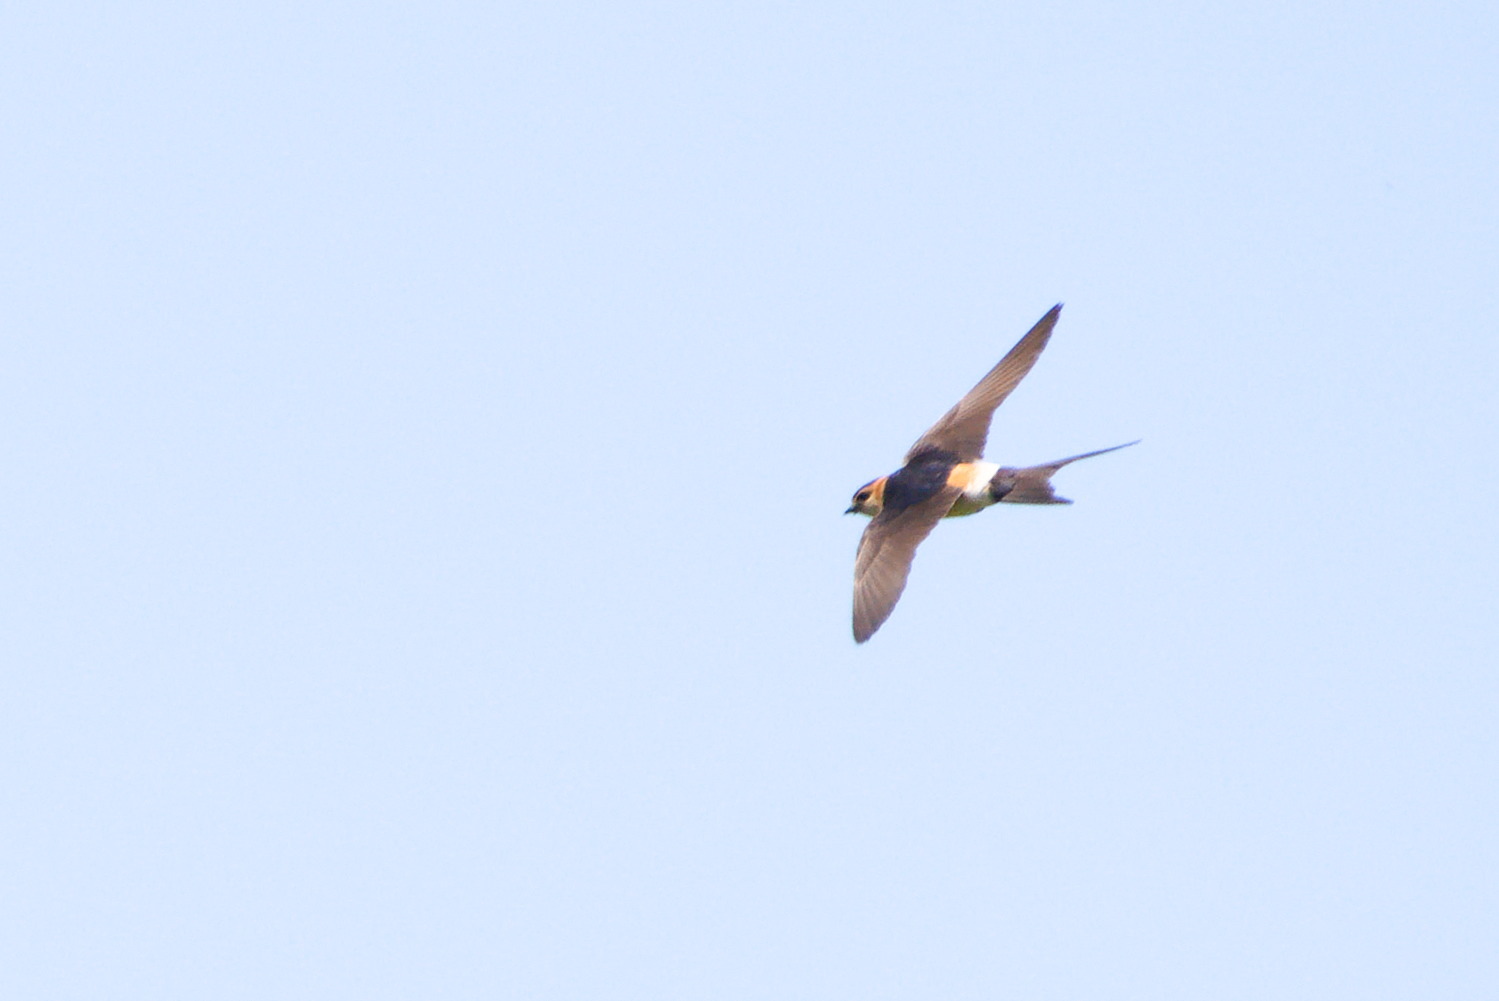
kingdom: Animalia
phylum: Chordata
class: Aves
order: Passeriformes
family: Hirundinidae
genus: Cecropis
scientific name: Cecropis daurica
